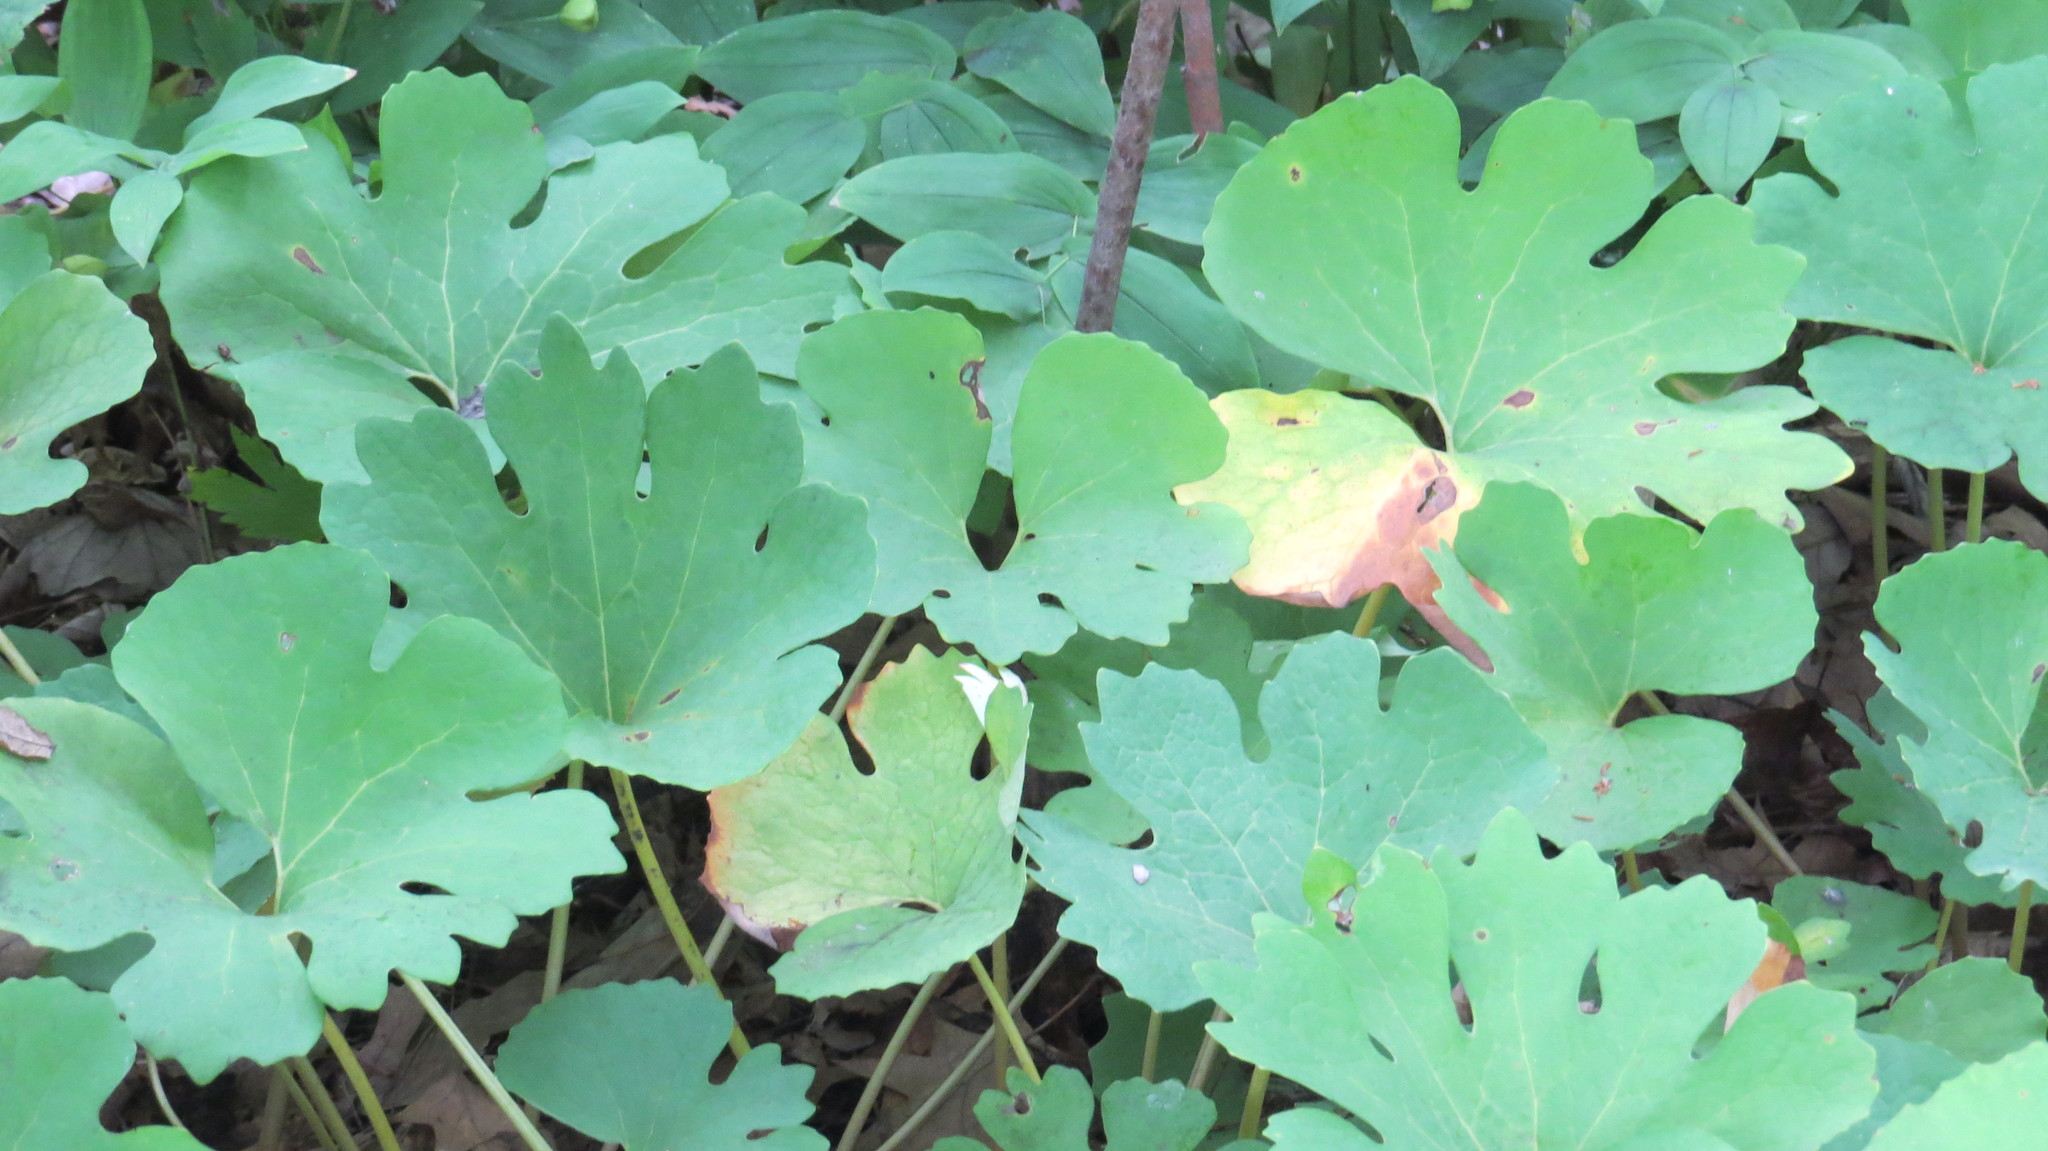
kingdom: Plantae
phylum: Tracheophyta
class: Magnoliopsida
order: Ranunculales
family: Papaveraceae
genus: Sanguinaria
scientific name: Sanguinaria canadensis
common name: Bloodroot
